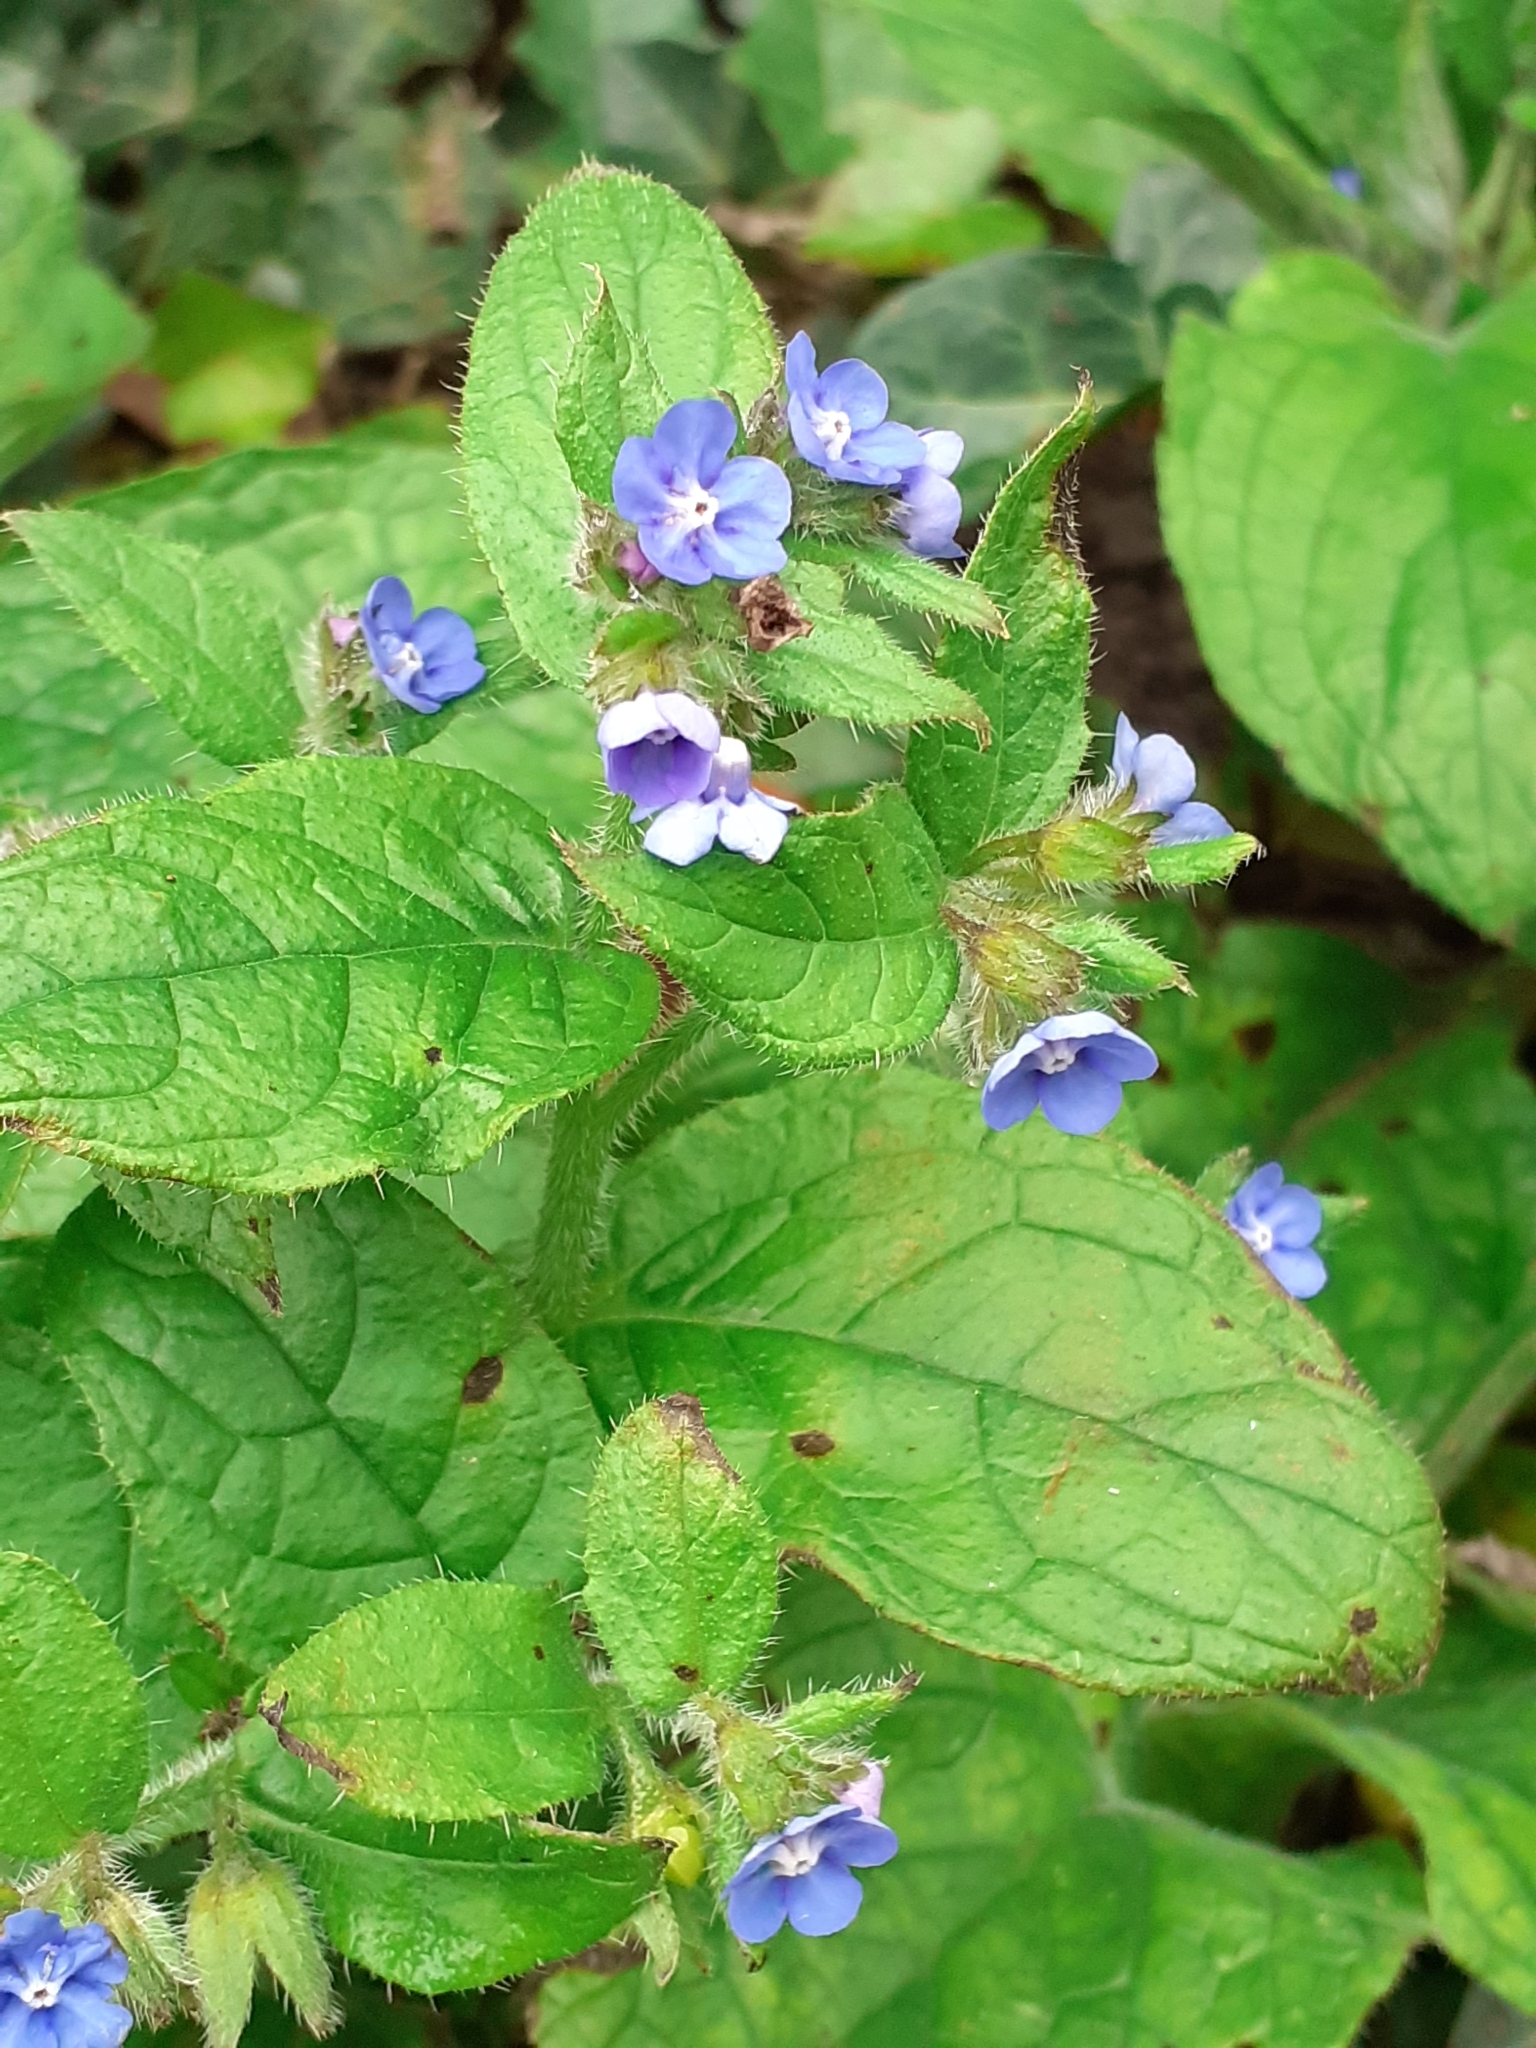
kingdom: Plantae
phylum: Tracheophyta
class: Magnoliopsida
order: Boraginales
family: Boraginaceae
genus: Pentaglottis
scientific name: Pentaglottis sempervirens
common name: Green alkanet
